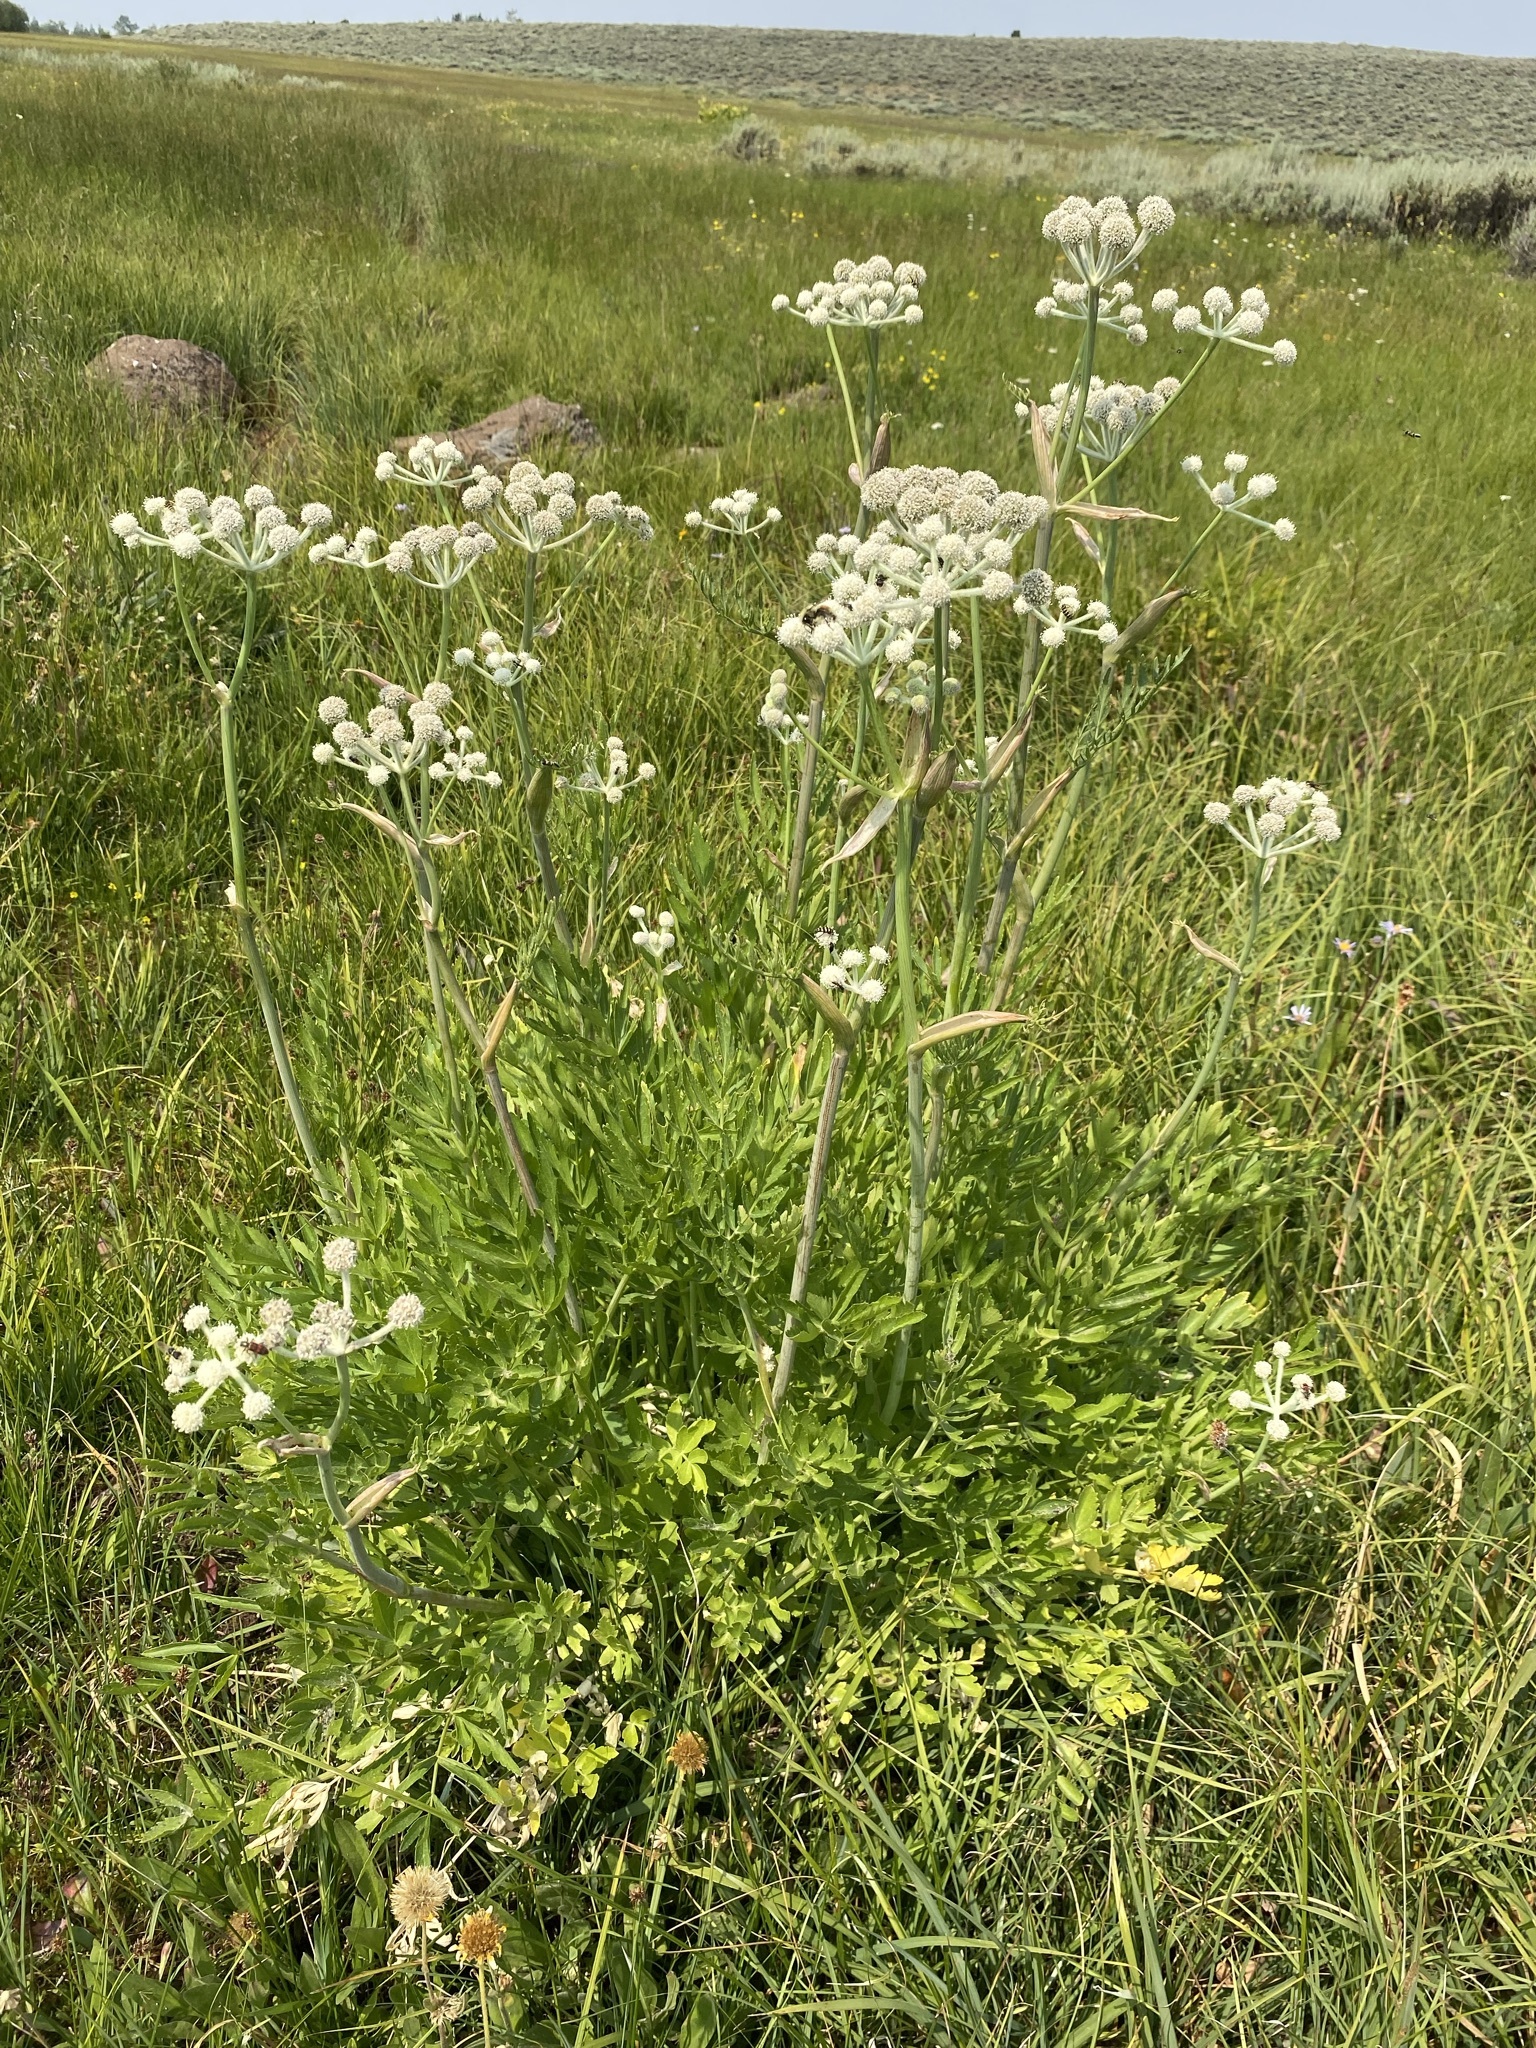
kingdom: Plantae
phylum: Tracheophyta
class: Magnoliopsida
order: Apiales
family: Apiaceae
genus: Angelica
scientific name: Angelica capitellata
